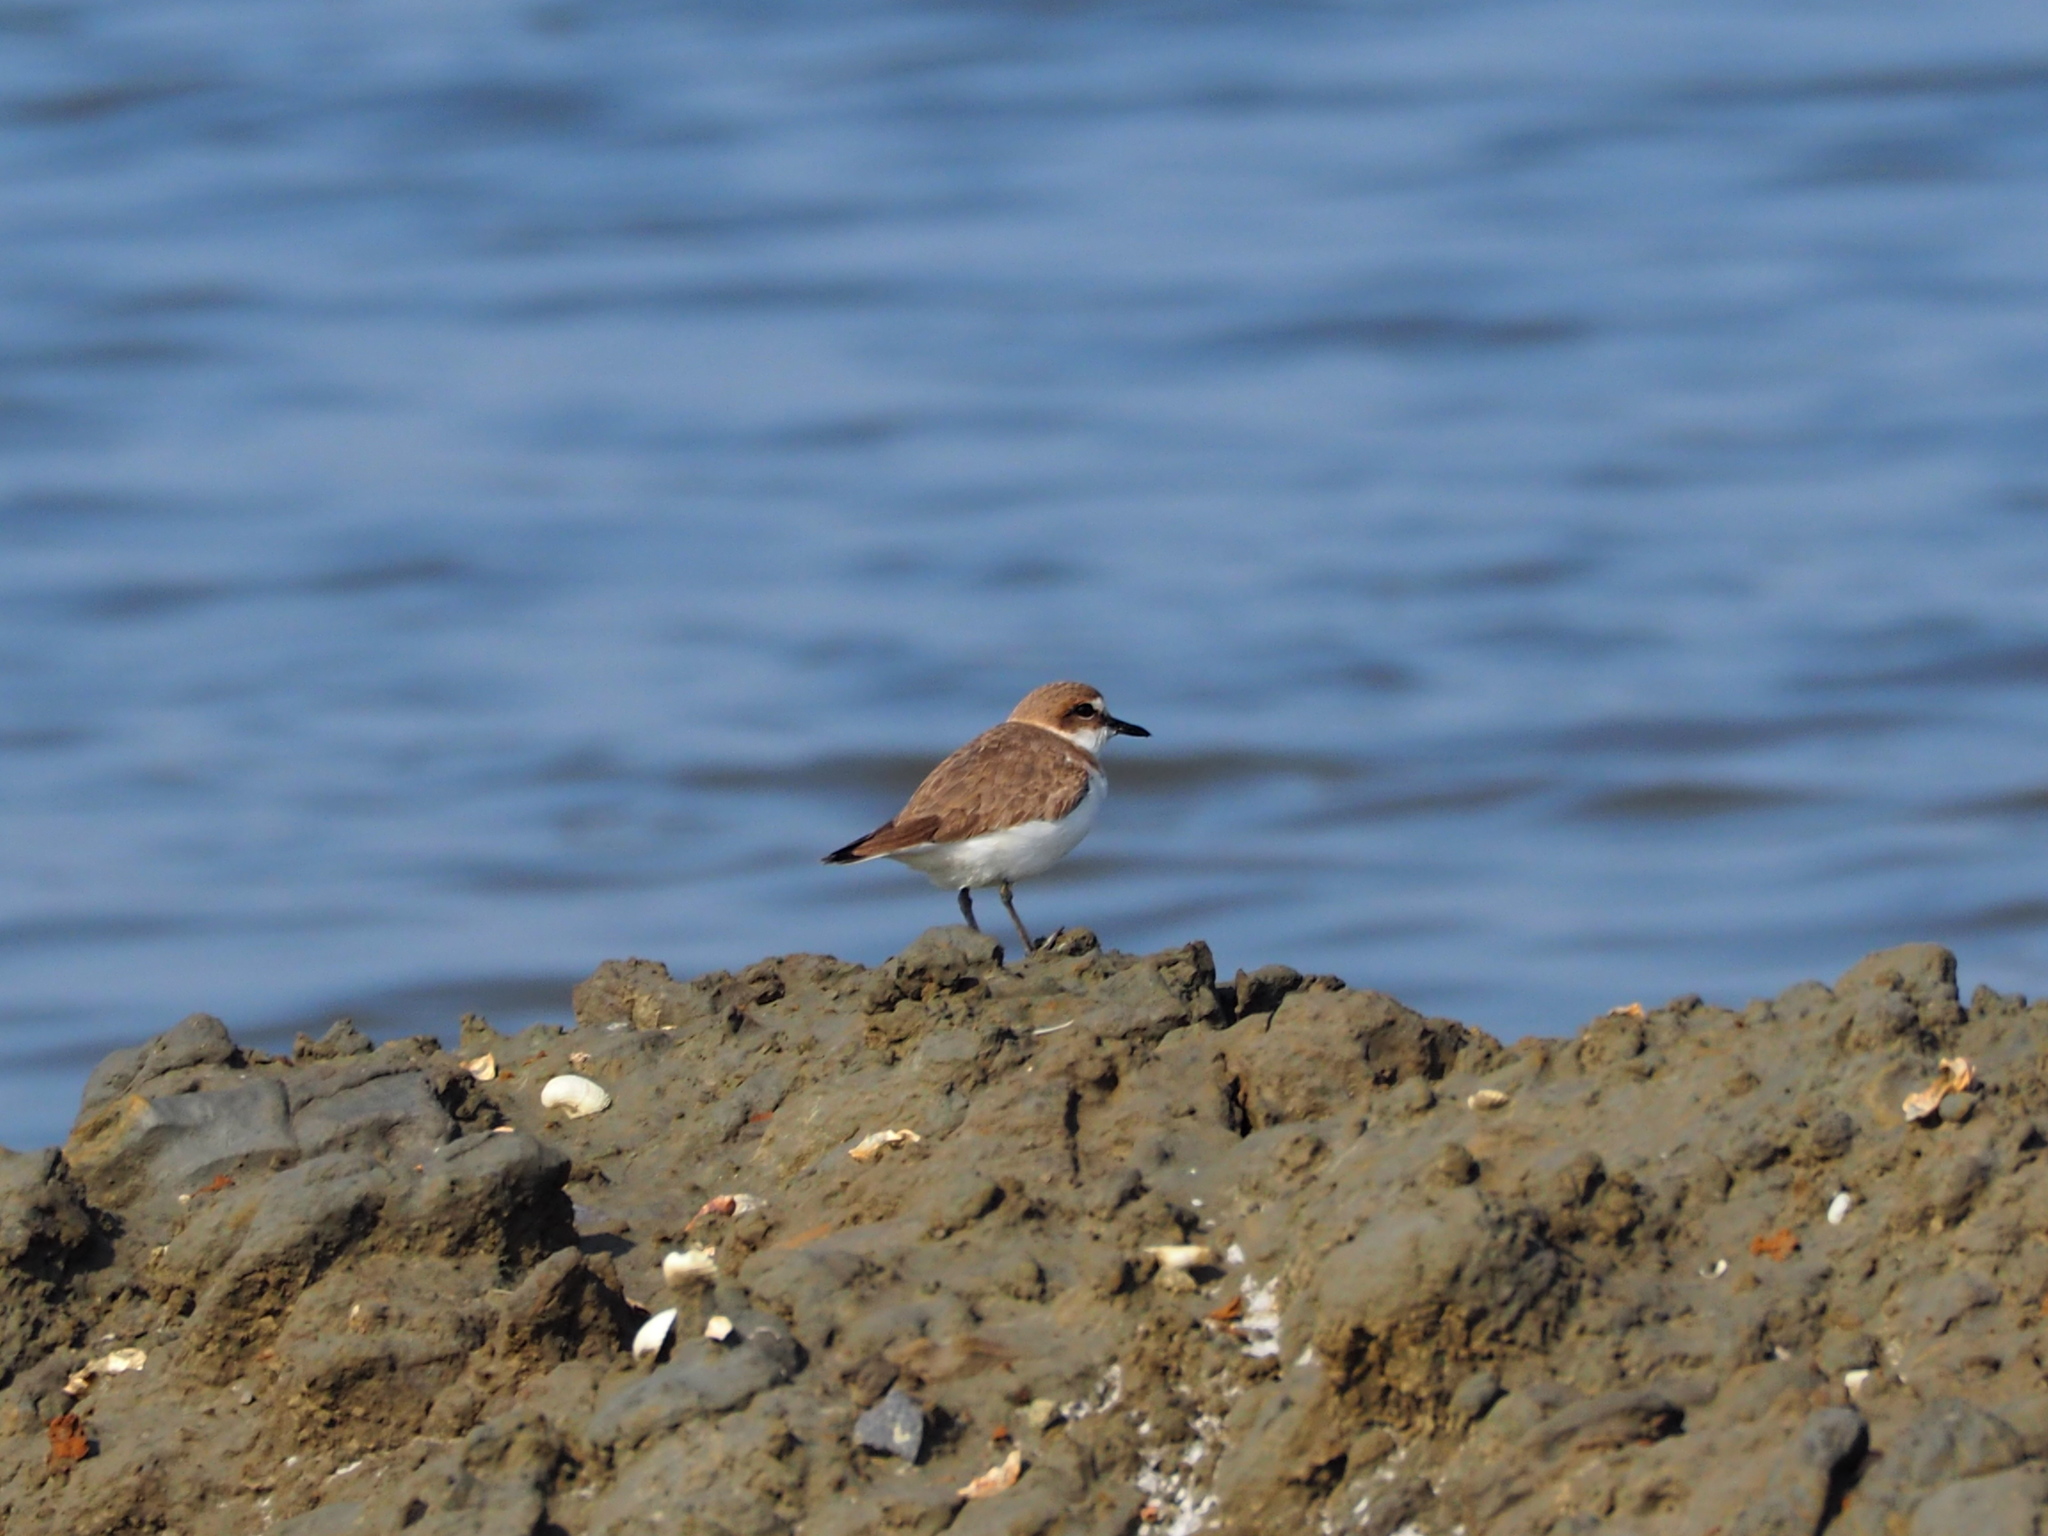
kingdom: Animalia
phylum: Chordata
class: Aves
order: Charadriiformes
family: Charadriidae
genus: Charadrius
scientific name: Charadrius alexandrinus
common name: Kentish plover
